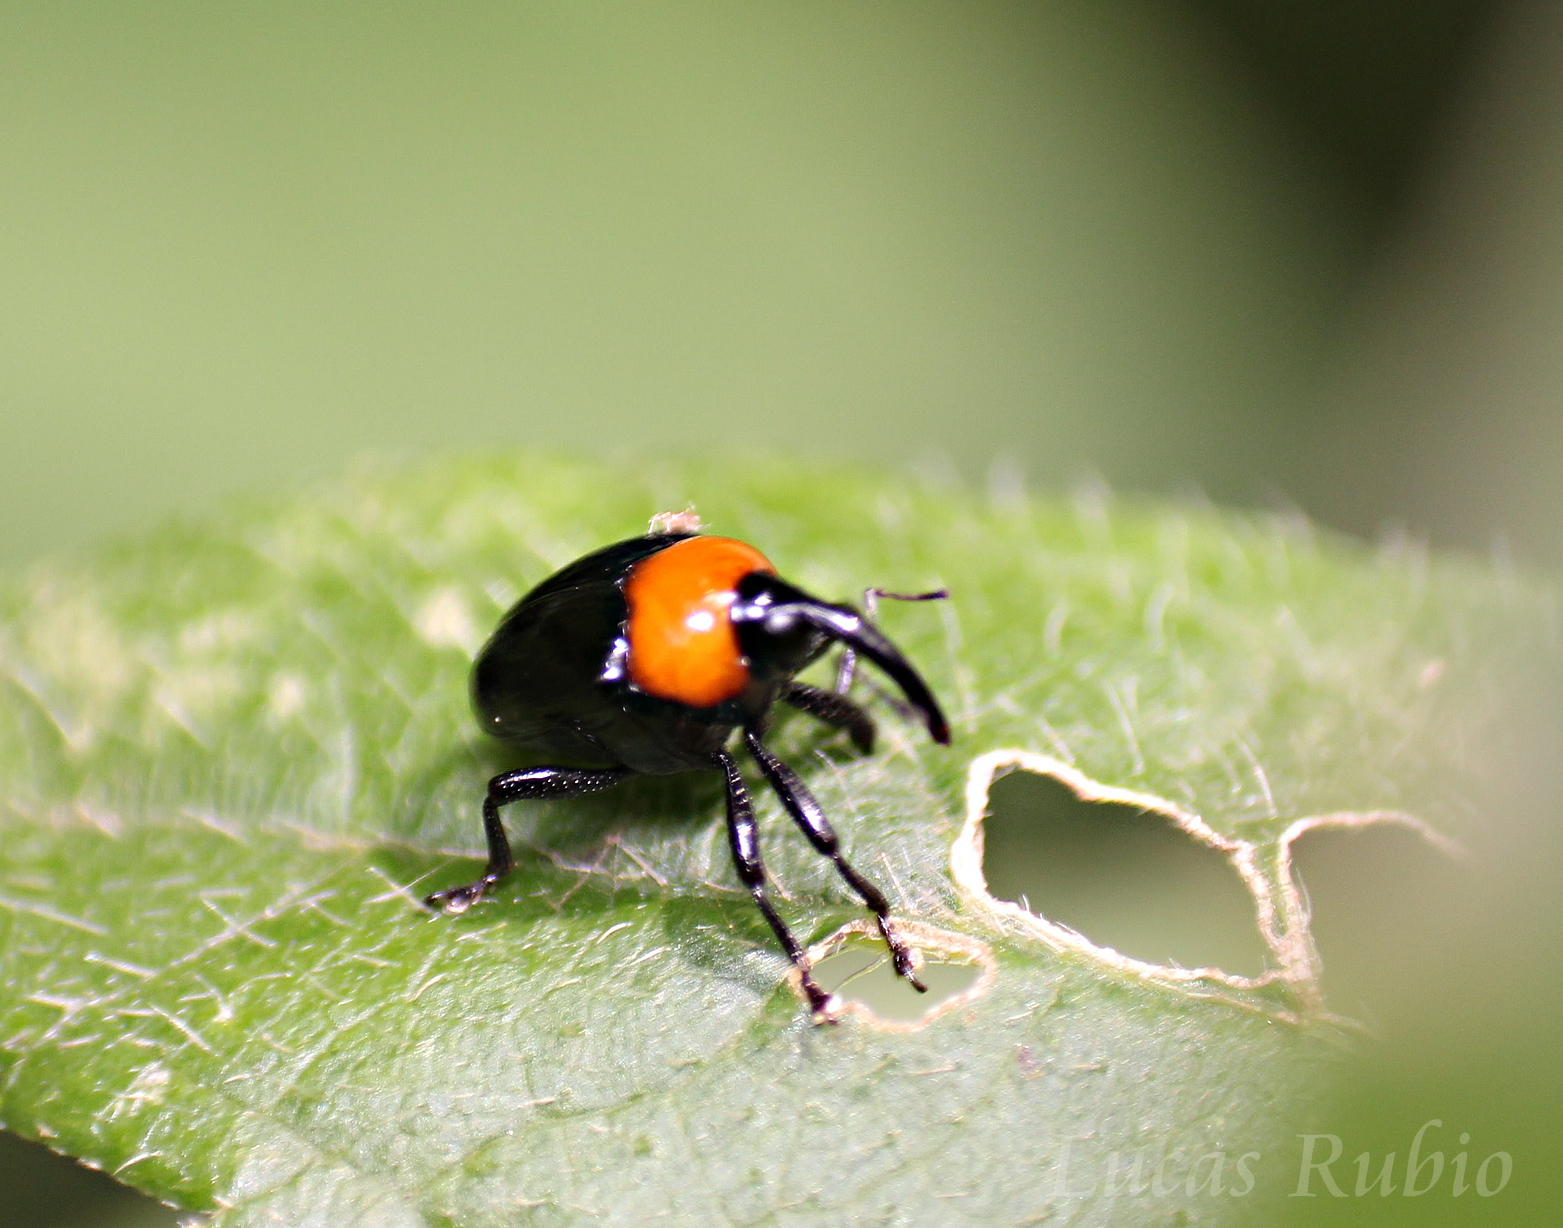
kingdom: Animalia
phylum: Arthropoda
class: Insecta
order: Coleoptera
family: Curculionidae
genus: Xystus
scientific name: Xystus sanguinicollis
